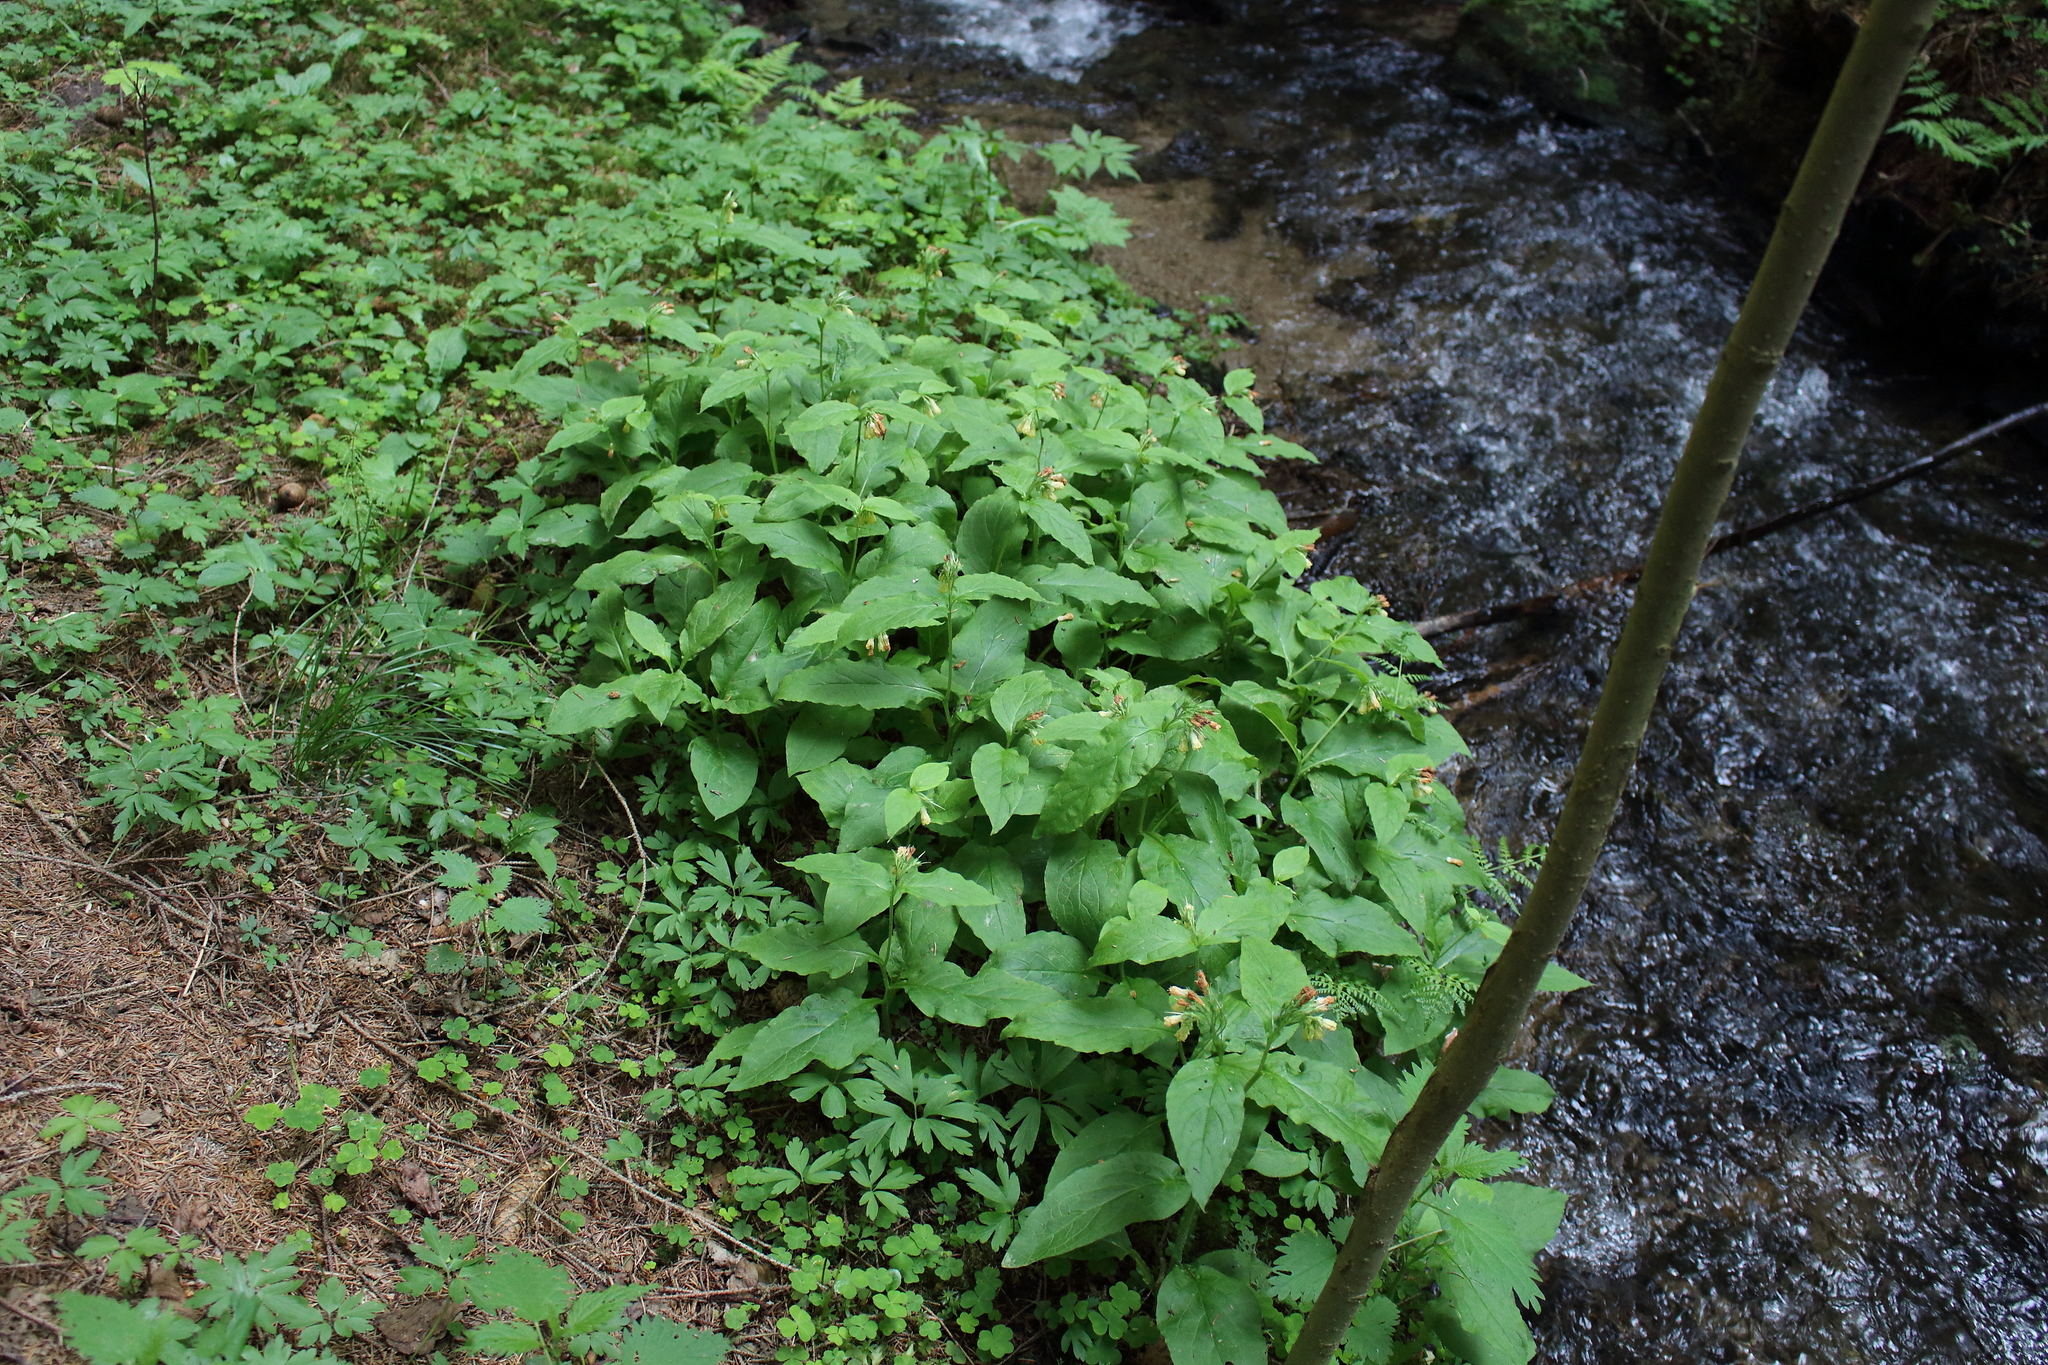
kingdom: Plantae
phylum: Tracheophyta
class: Magnoliopsida
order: Boraginales
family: Boraginaceae
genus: Symphytum
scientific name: Symphytum tuberosum
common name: Tuberous comfrey
